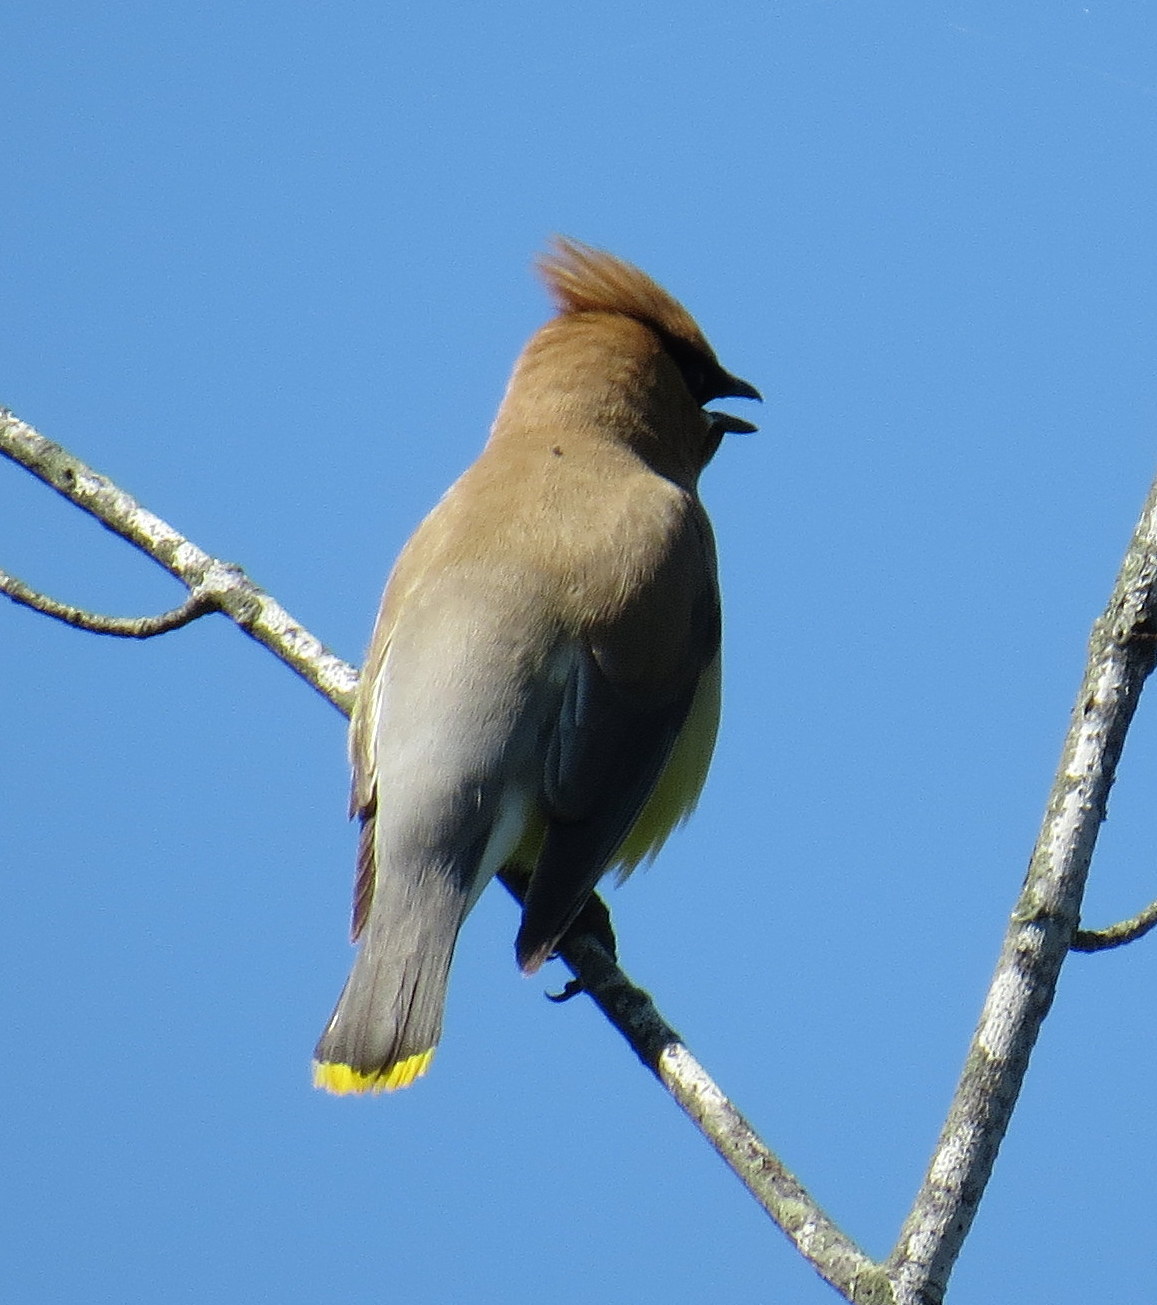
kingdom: Animalia
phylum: Chordata
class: Aves
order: Passeriformes
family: Bombycillidae
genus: Bombycilla
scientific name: Bombycilla cedrorum
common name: Cedar waxwing
